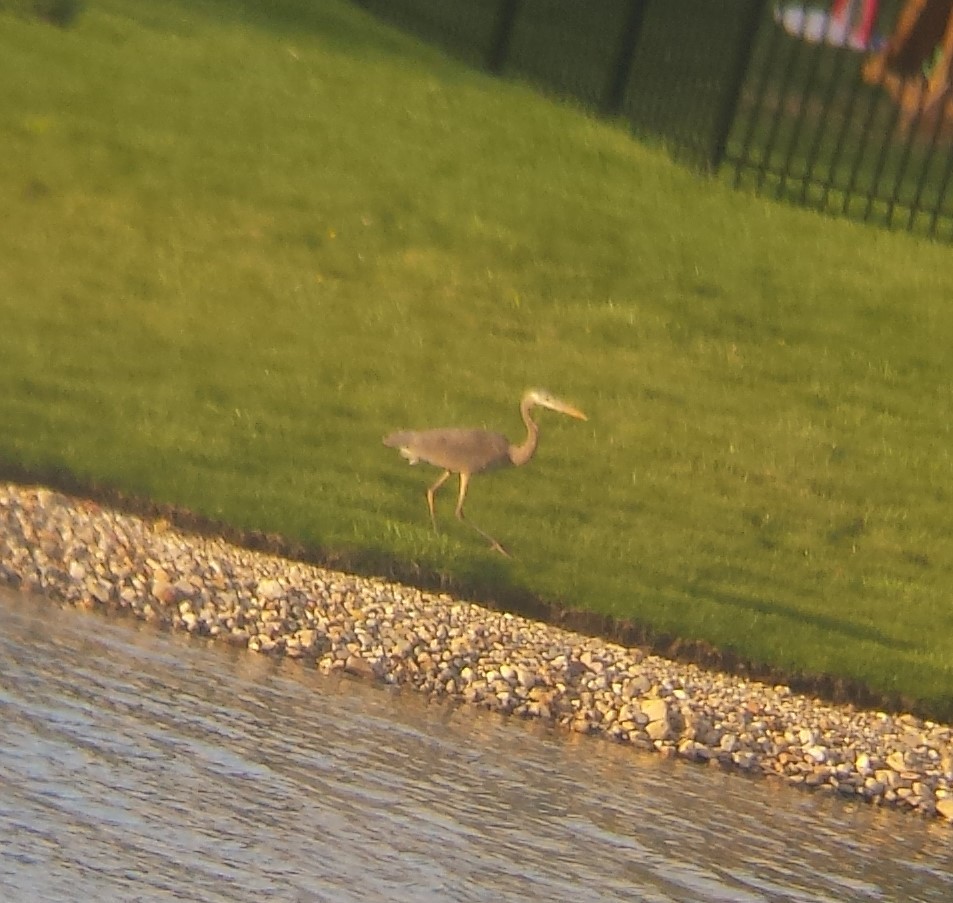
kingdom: Animalia
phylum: Chordata
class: Aves
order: Pelecaniformes
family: Ardeidae
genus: Ardea
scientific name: Ardea herodias
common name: Great blue heron
